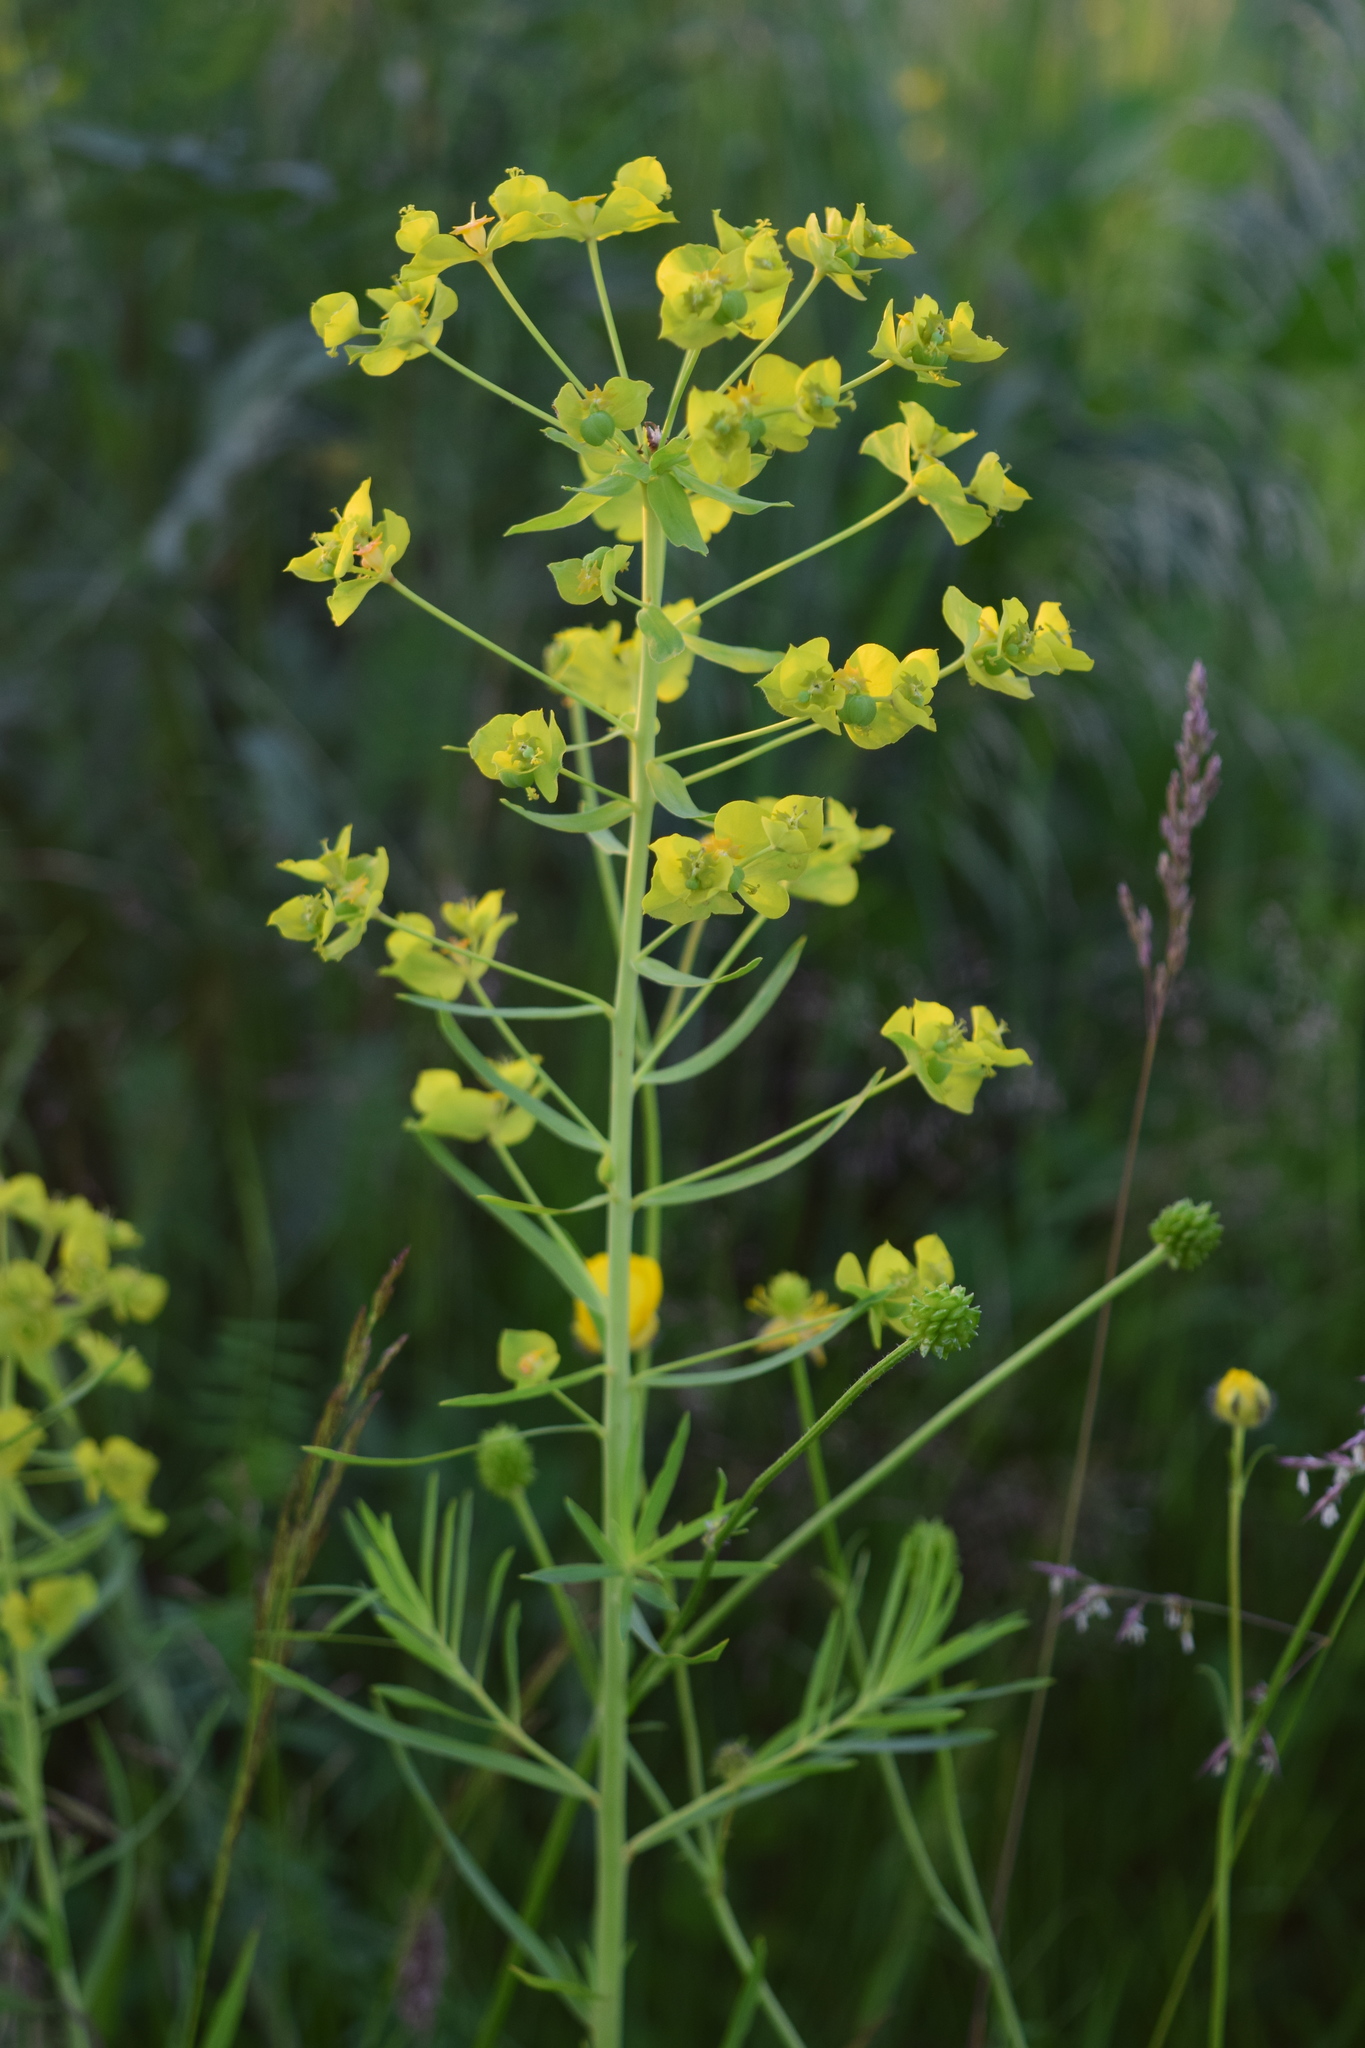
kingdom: Plantae
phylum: Tracheophyta
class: Magnoliopsida
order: Malpighiales
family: Euphorbiaceae
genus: Euphorbia
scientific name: Euphorbia virgata
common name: Leafy spurge
